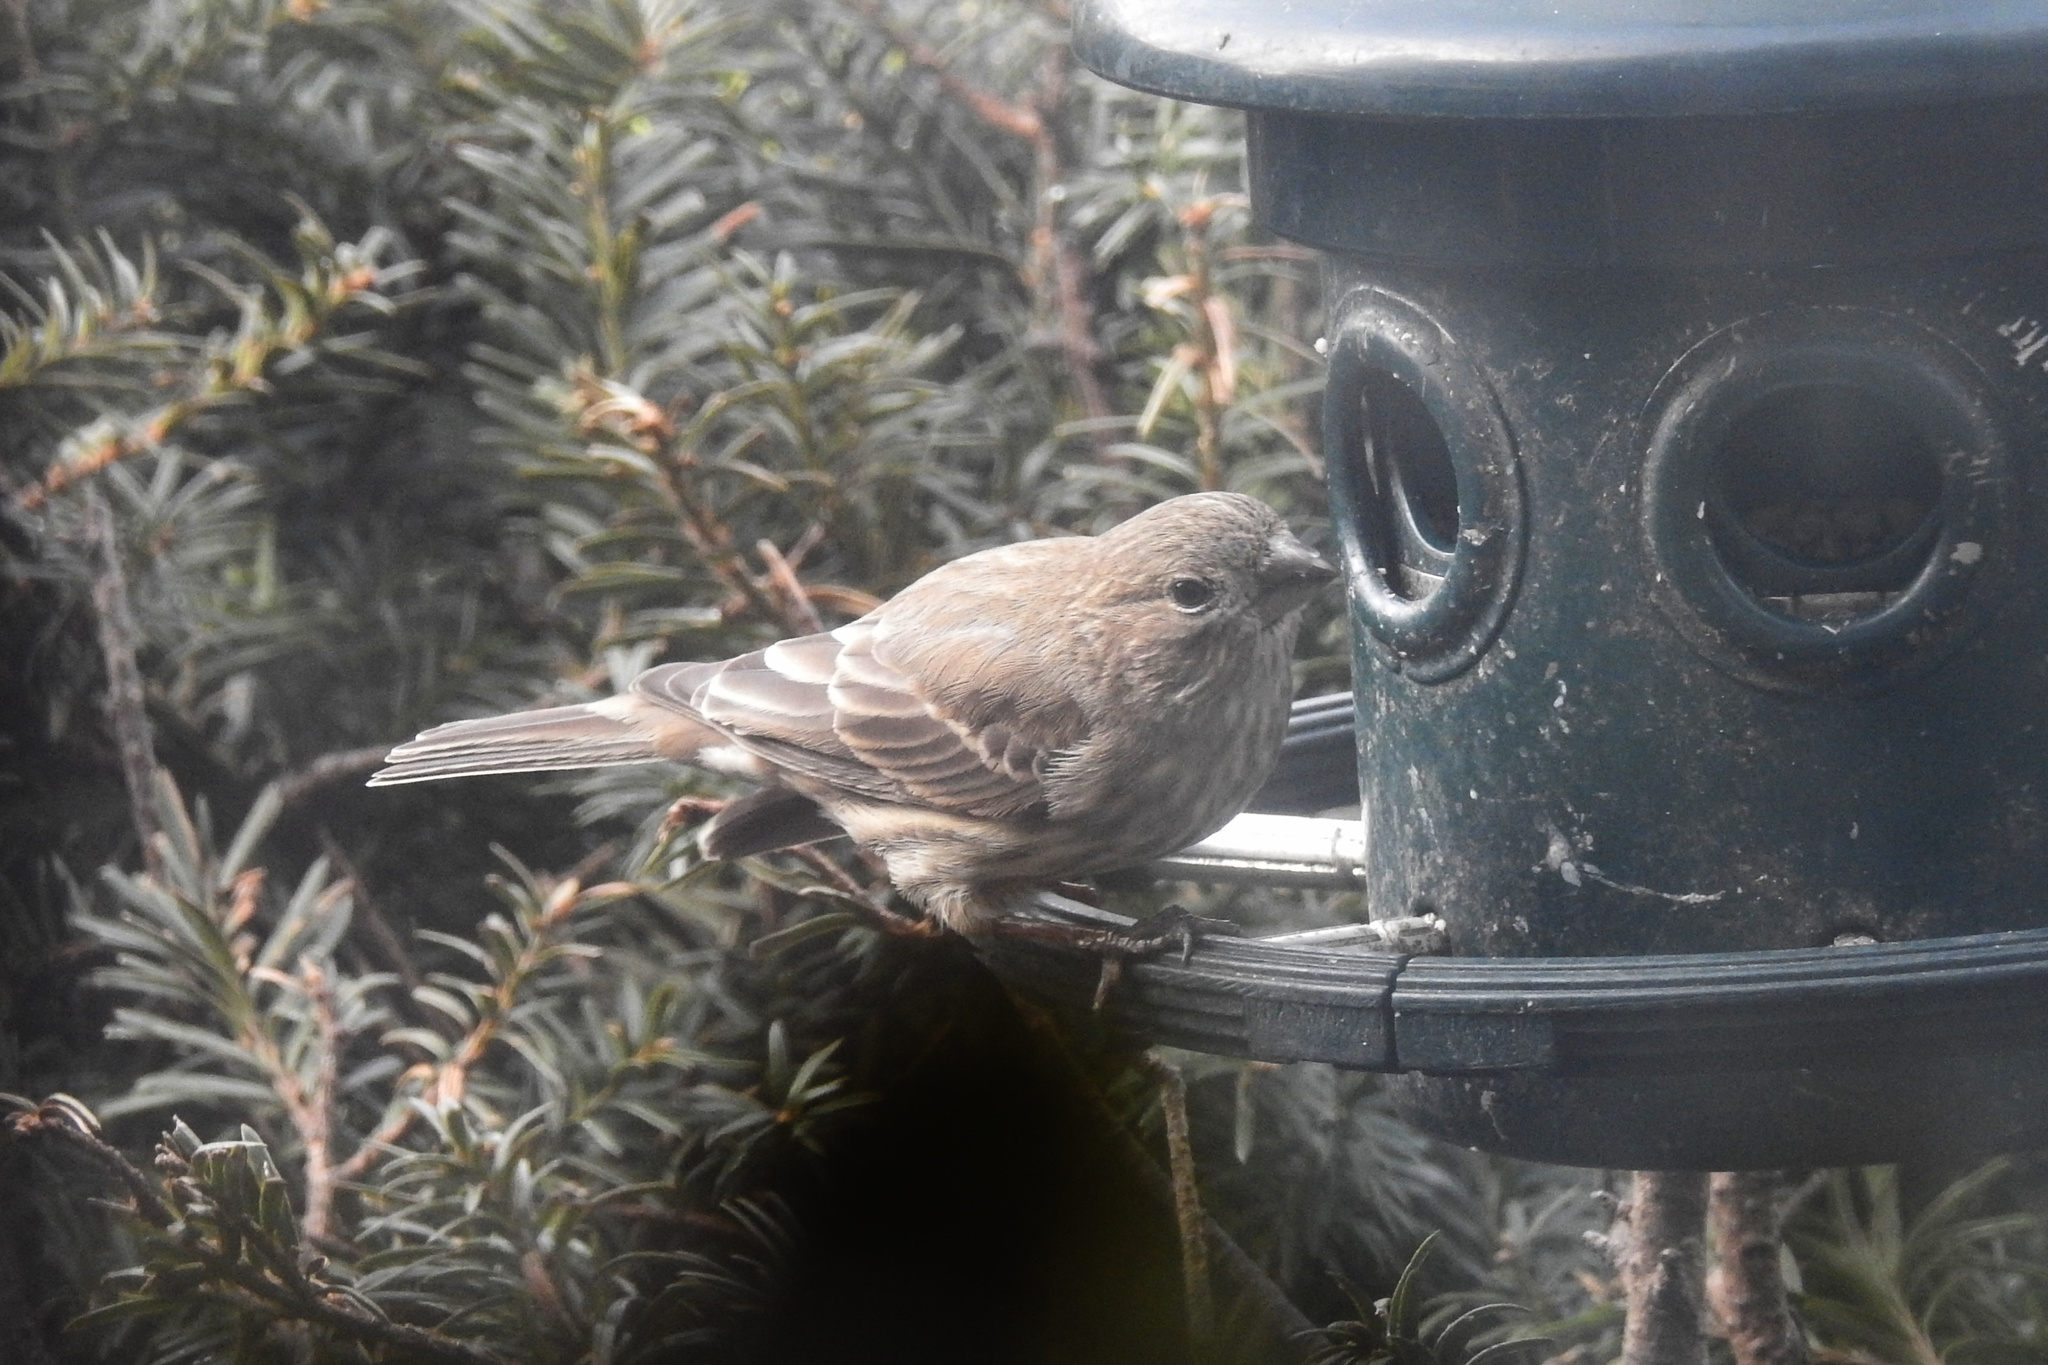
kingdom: Animalia
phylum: Chordata
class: Aves
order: Passeriformes
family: Fringillidae
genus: Haemorhous
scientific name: Haemorhous mexicanus
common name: House finch
